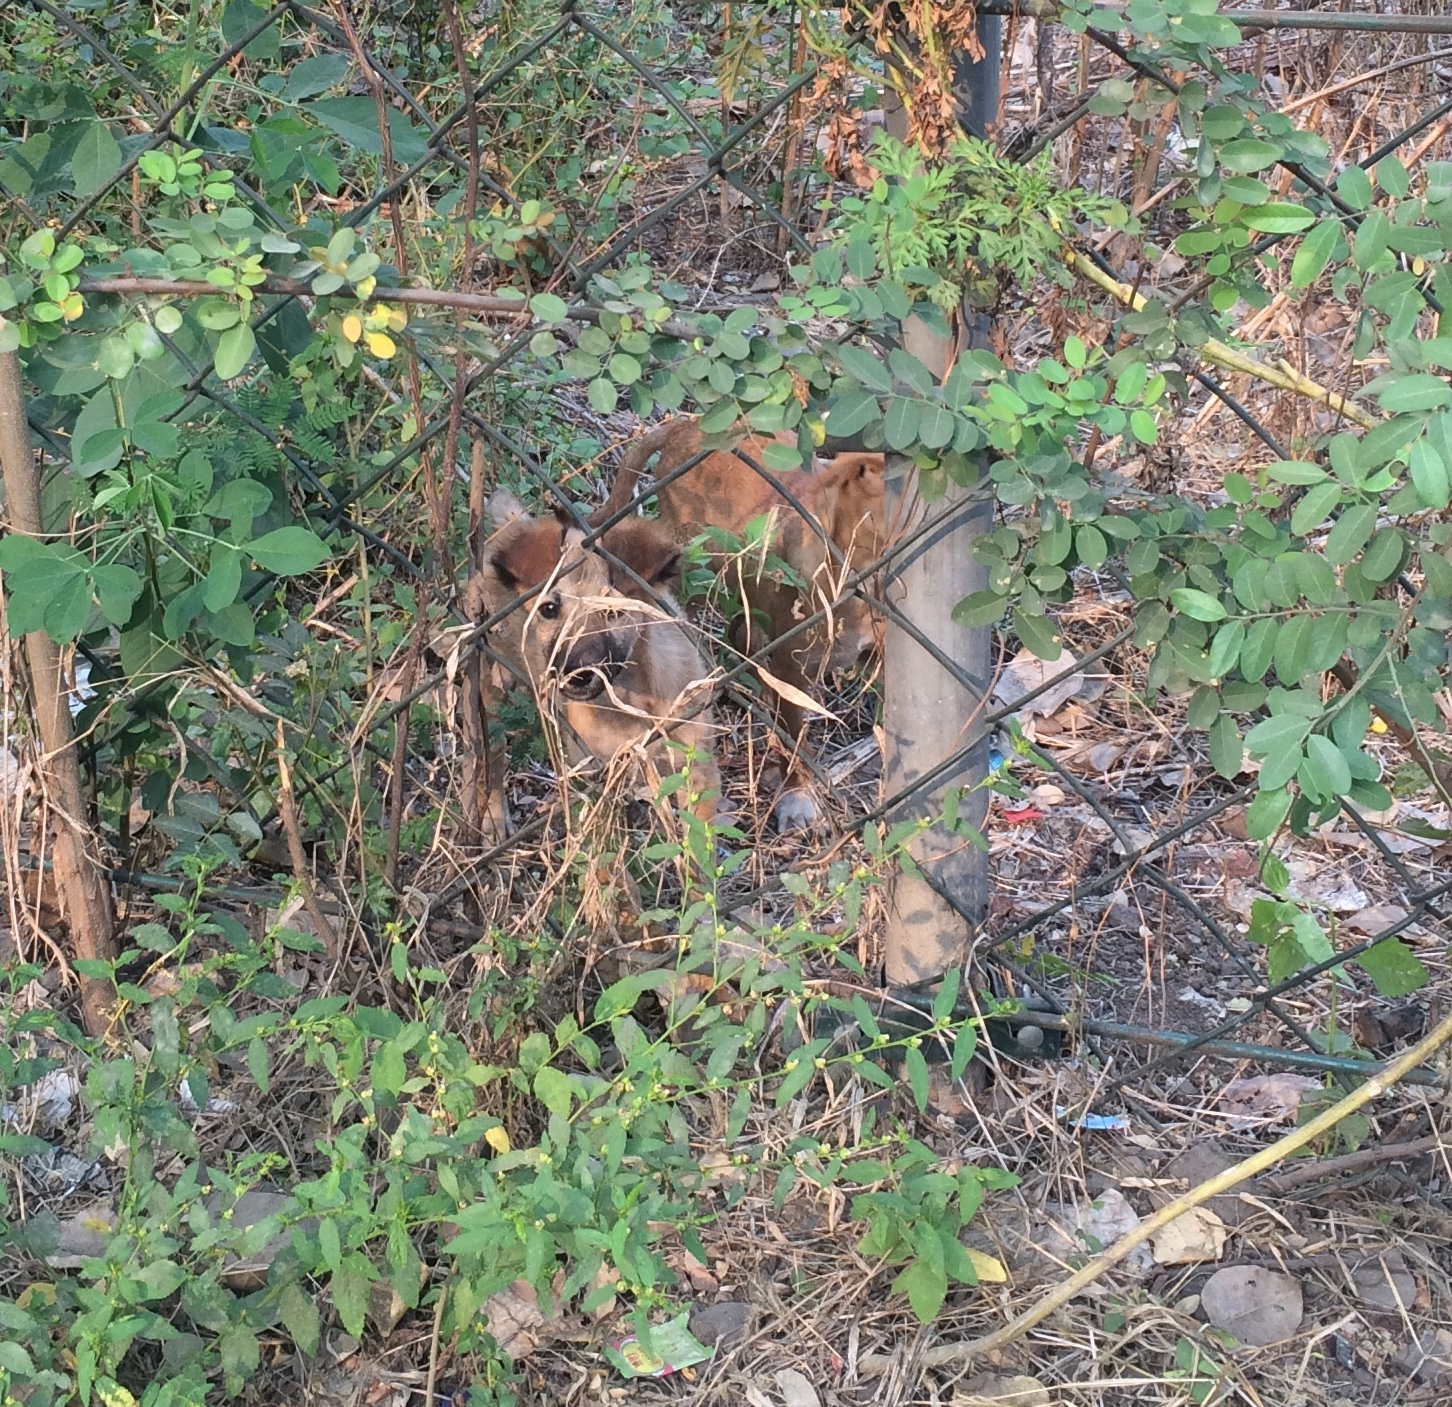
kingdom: Animalia
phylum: Chordata
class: Mammalia
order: Carnivora
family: Canidae
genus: Canis
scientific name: Canis lupus
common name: Gray wolf
